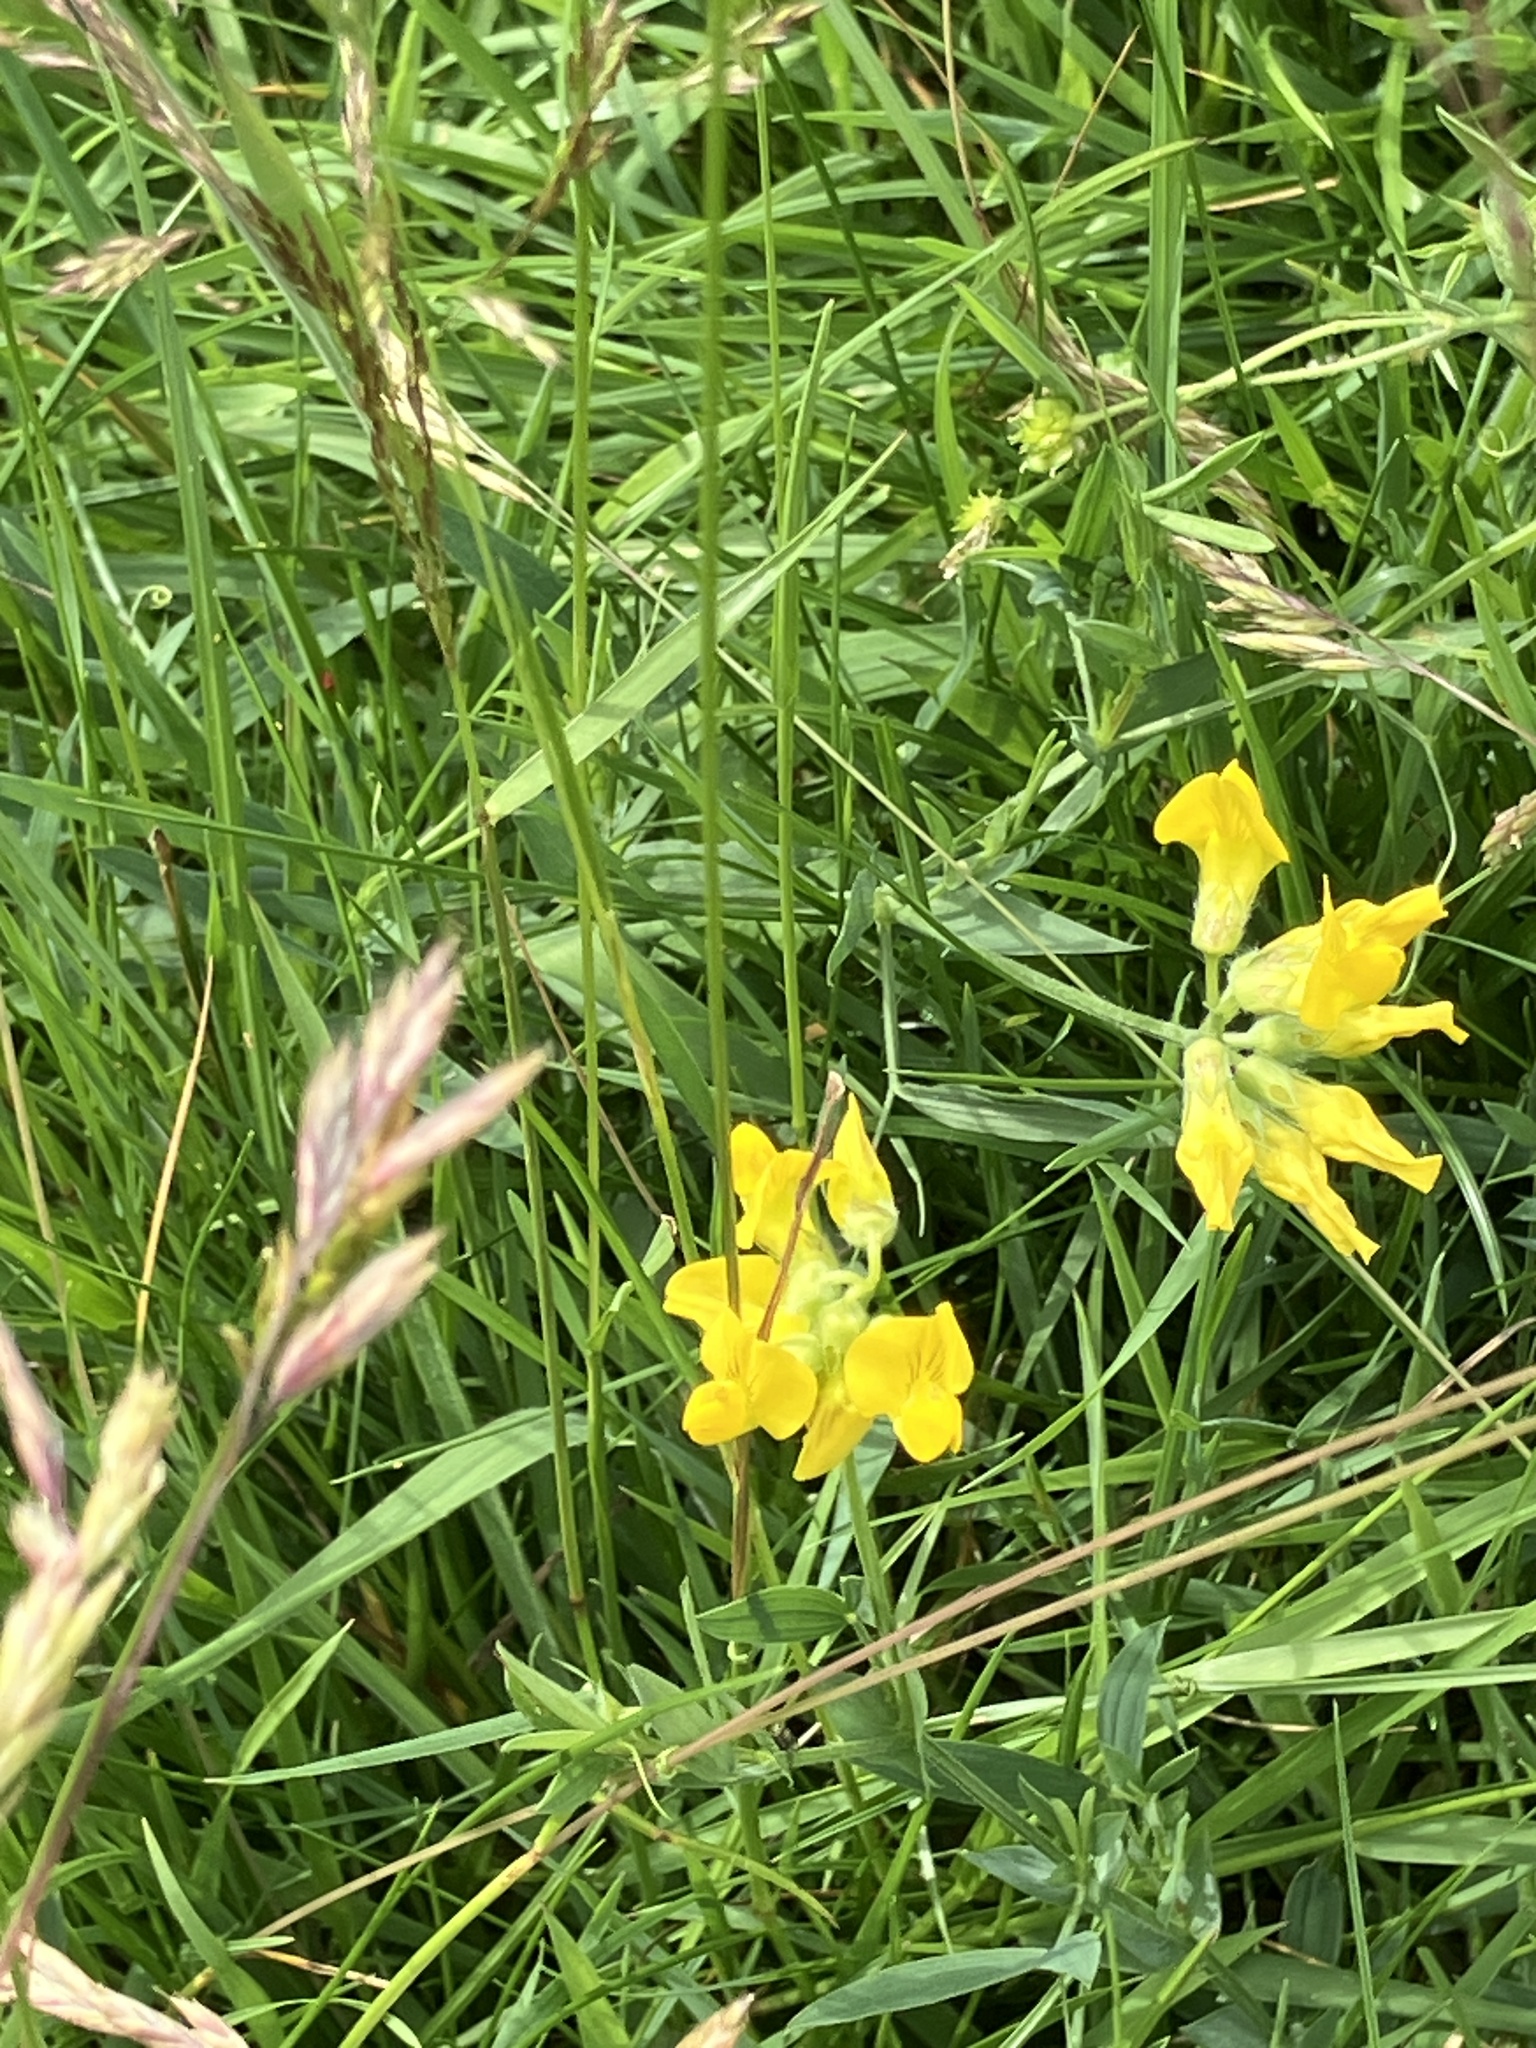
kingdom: Plantae
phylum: Tracheophyta
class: Magnoliopsida
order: Fabales
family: Fabaceae
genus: Lathyrus
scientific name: Lathyrus pratensis
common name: Meadow vetchling
